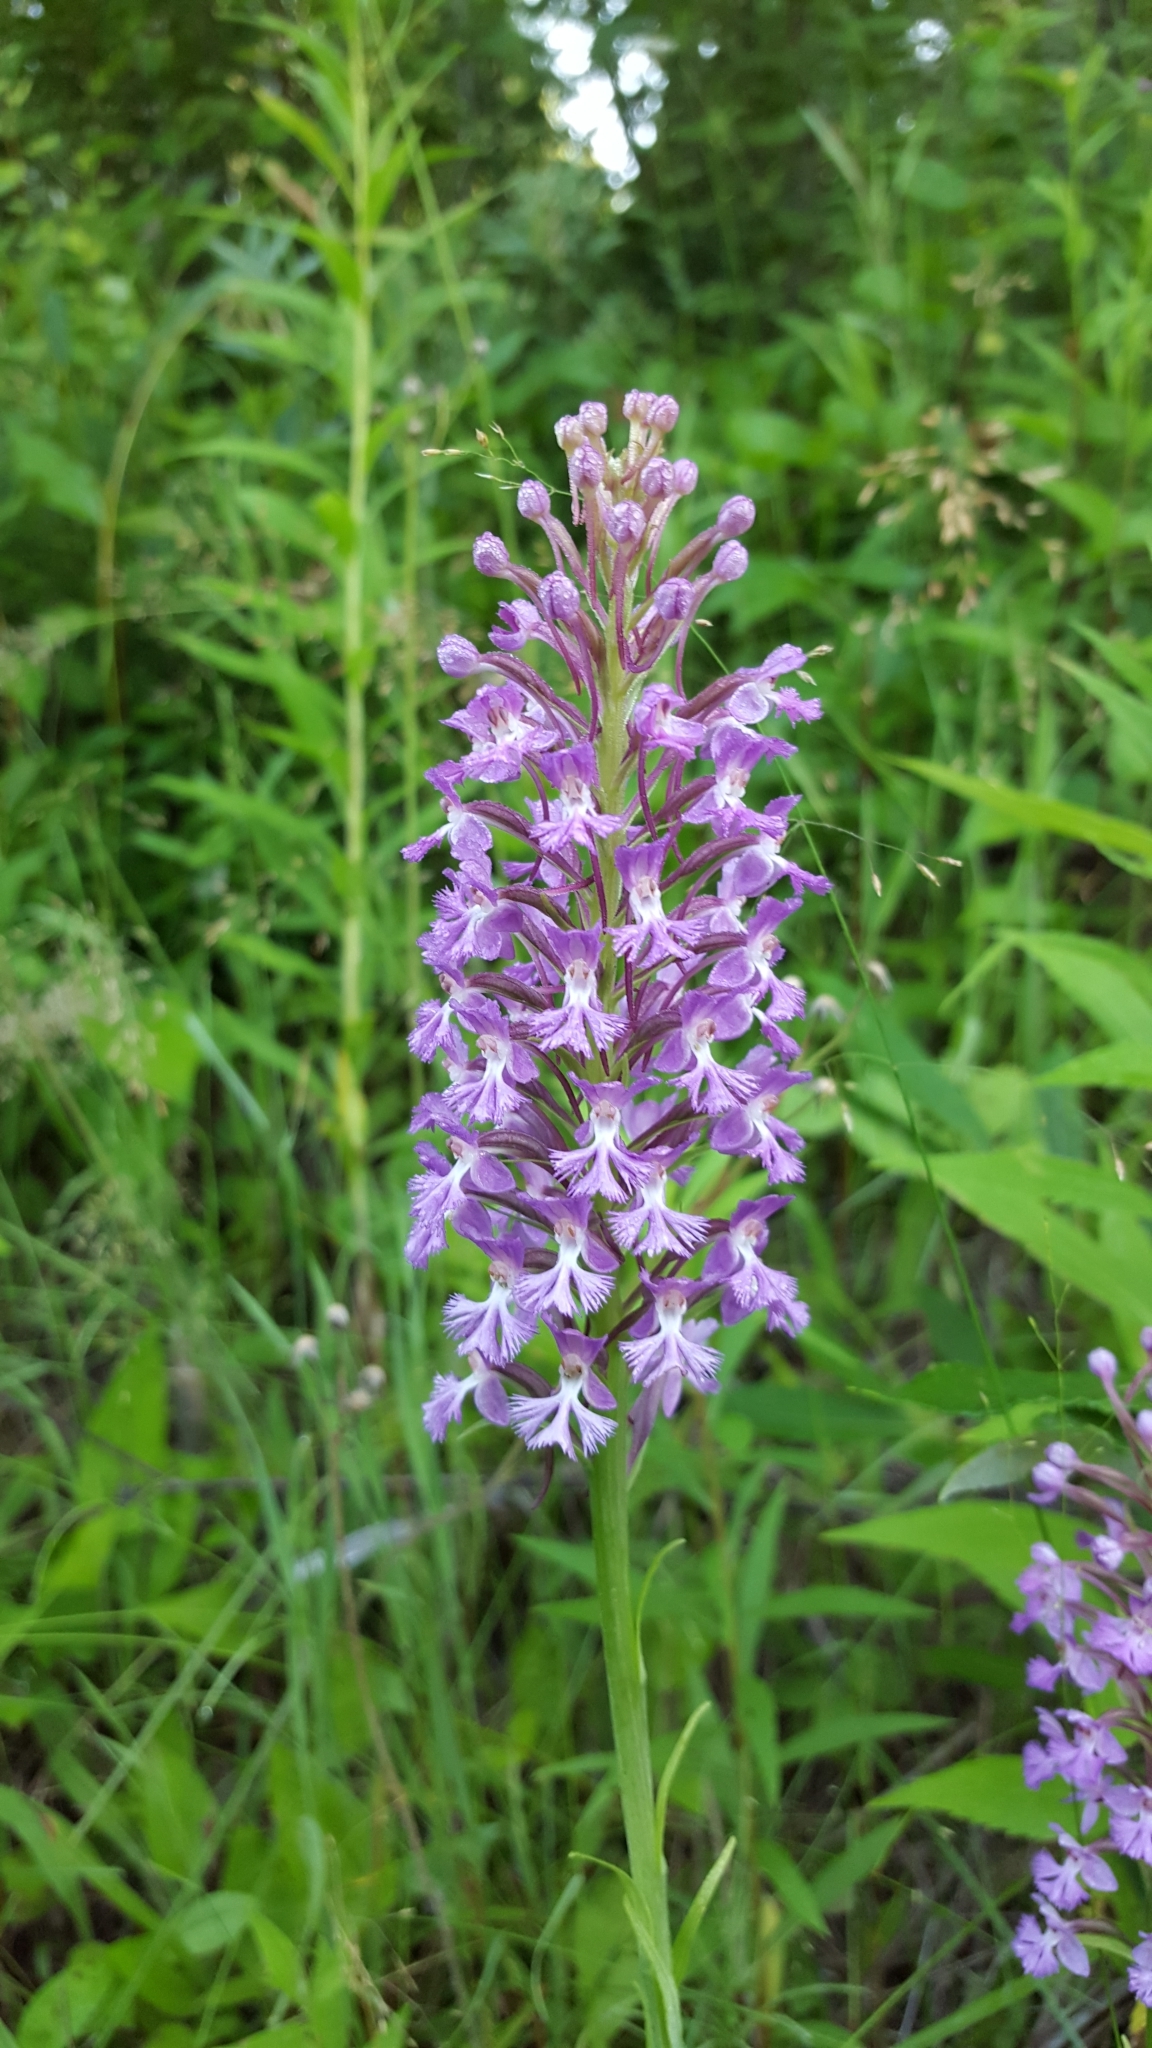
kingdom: Plantae
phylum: Tracheophyta
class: Liliopsida
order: Asparagales
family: Orchidaceae
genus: Platanthera
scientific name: Platanthera psycodes
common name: Lesser purple fringed orchid
